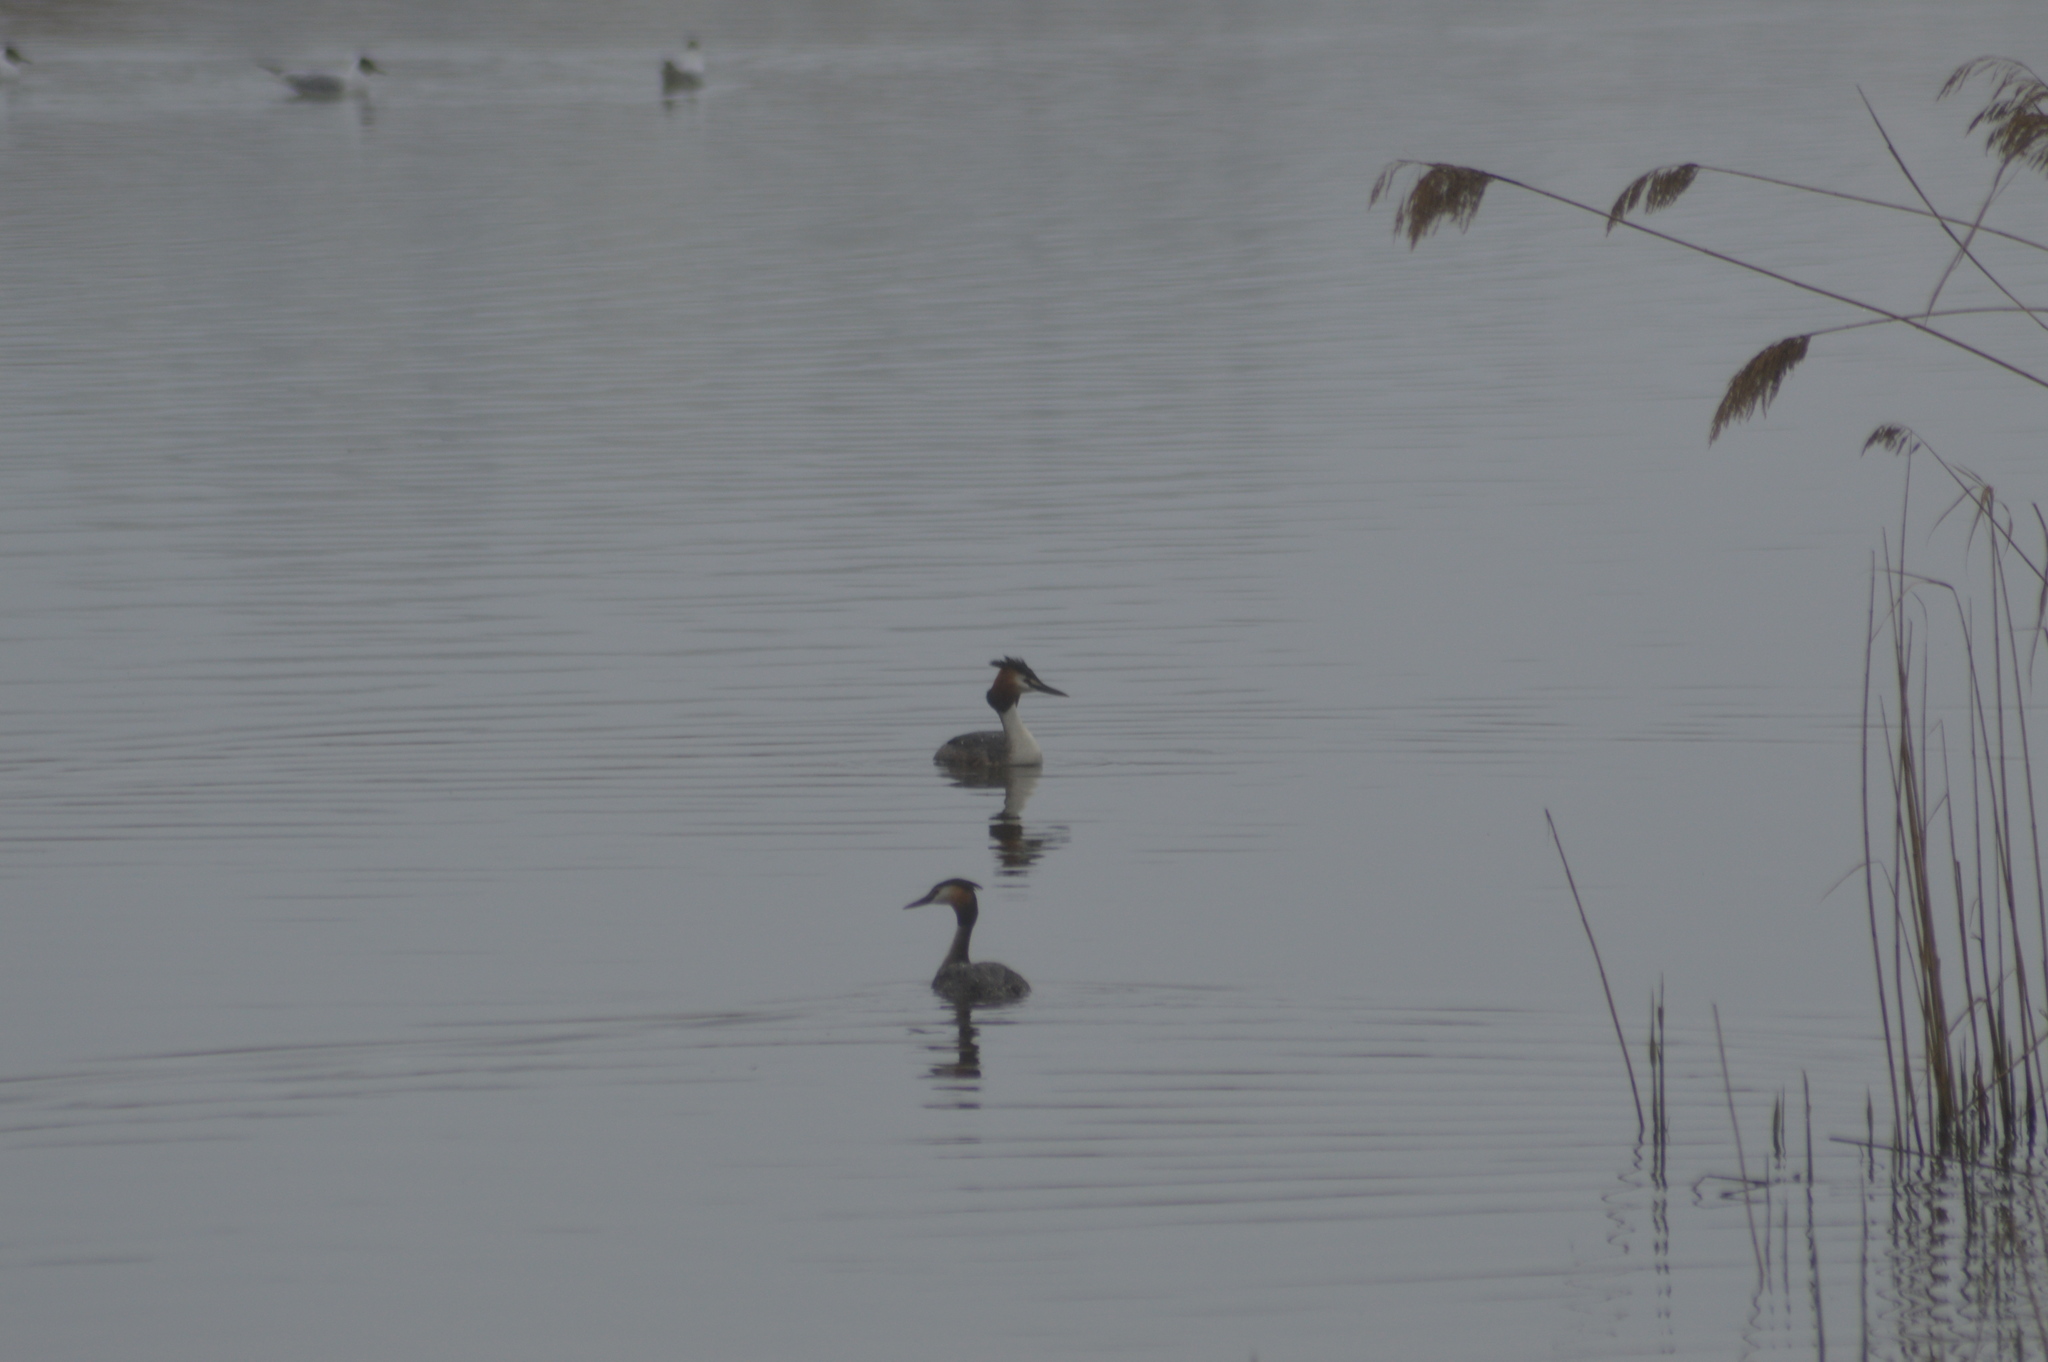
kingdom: Animalia
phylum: Chordata
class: Aves
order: Podicipediformes
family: Podicipedidae
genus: Podiceps
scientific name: Podiceps cristatus
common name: Great crested grebe
